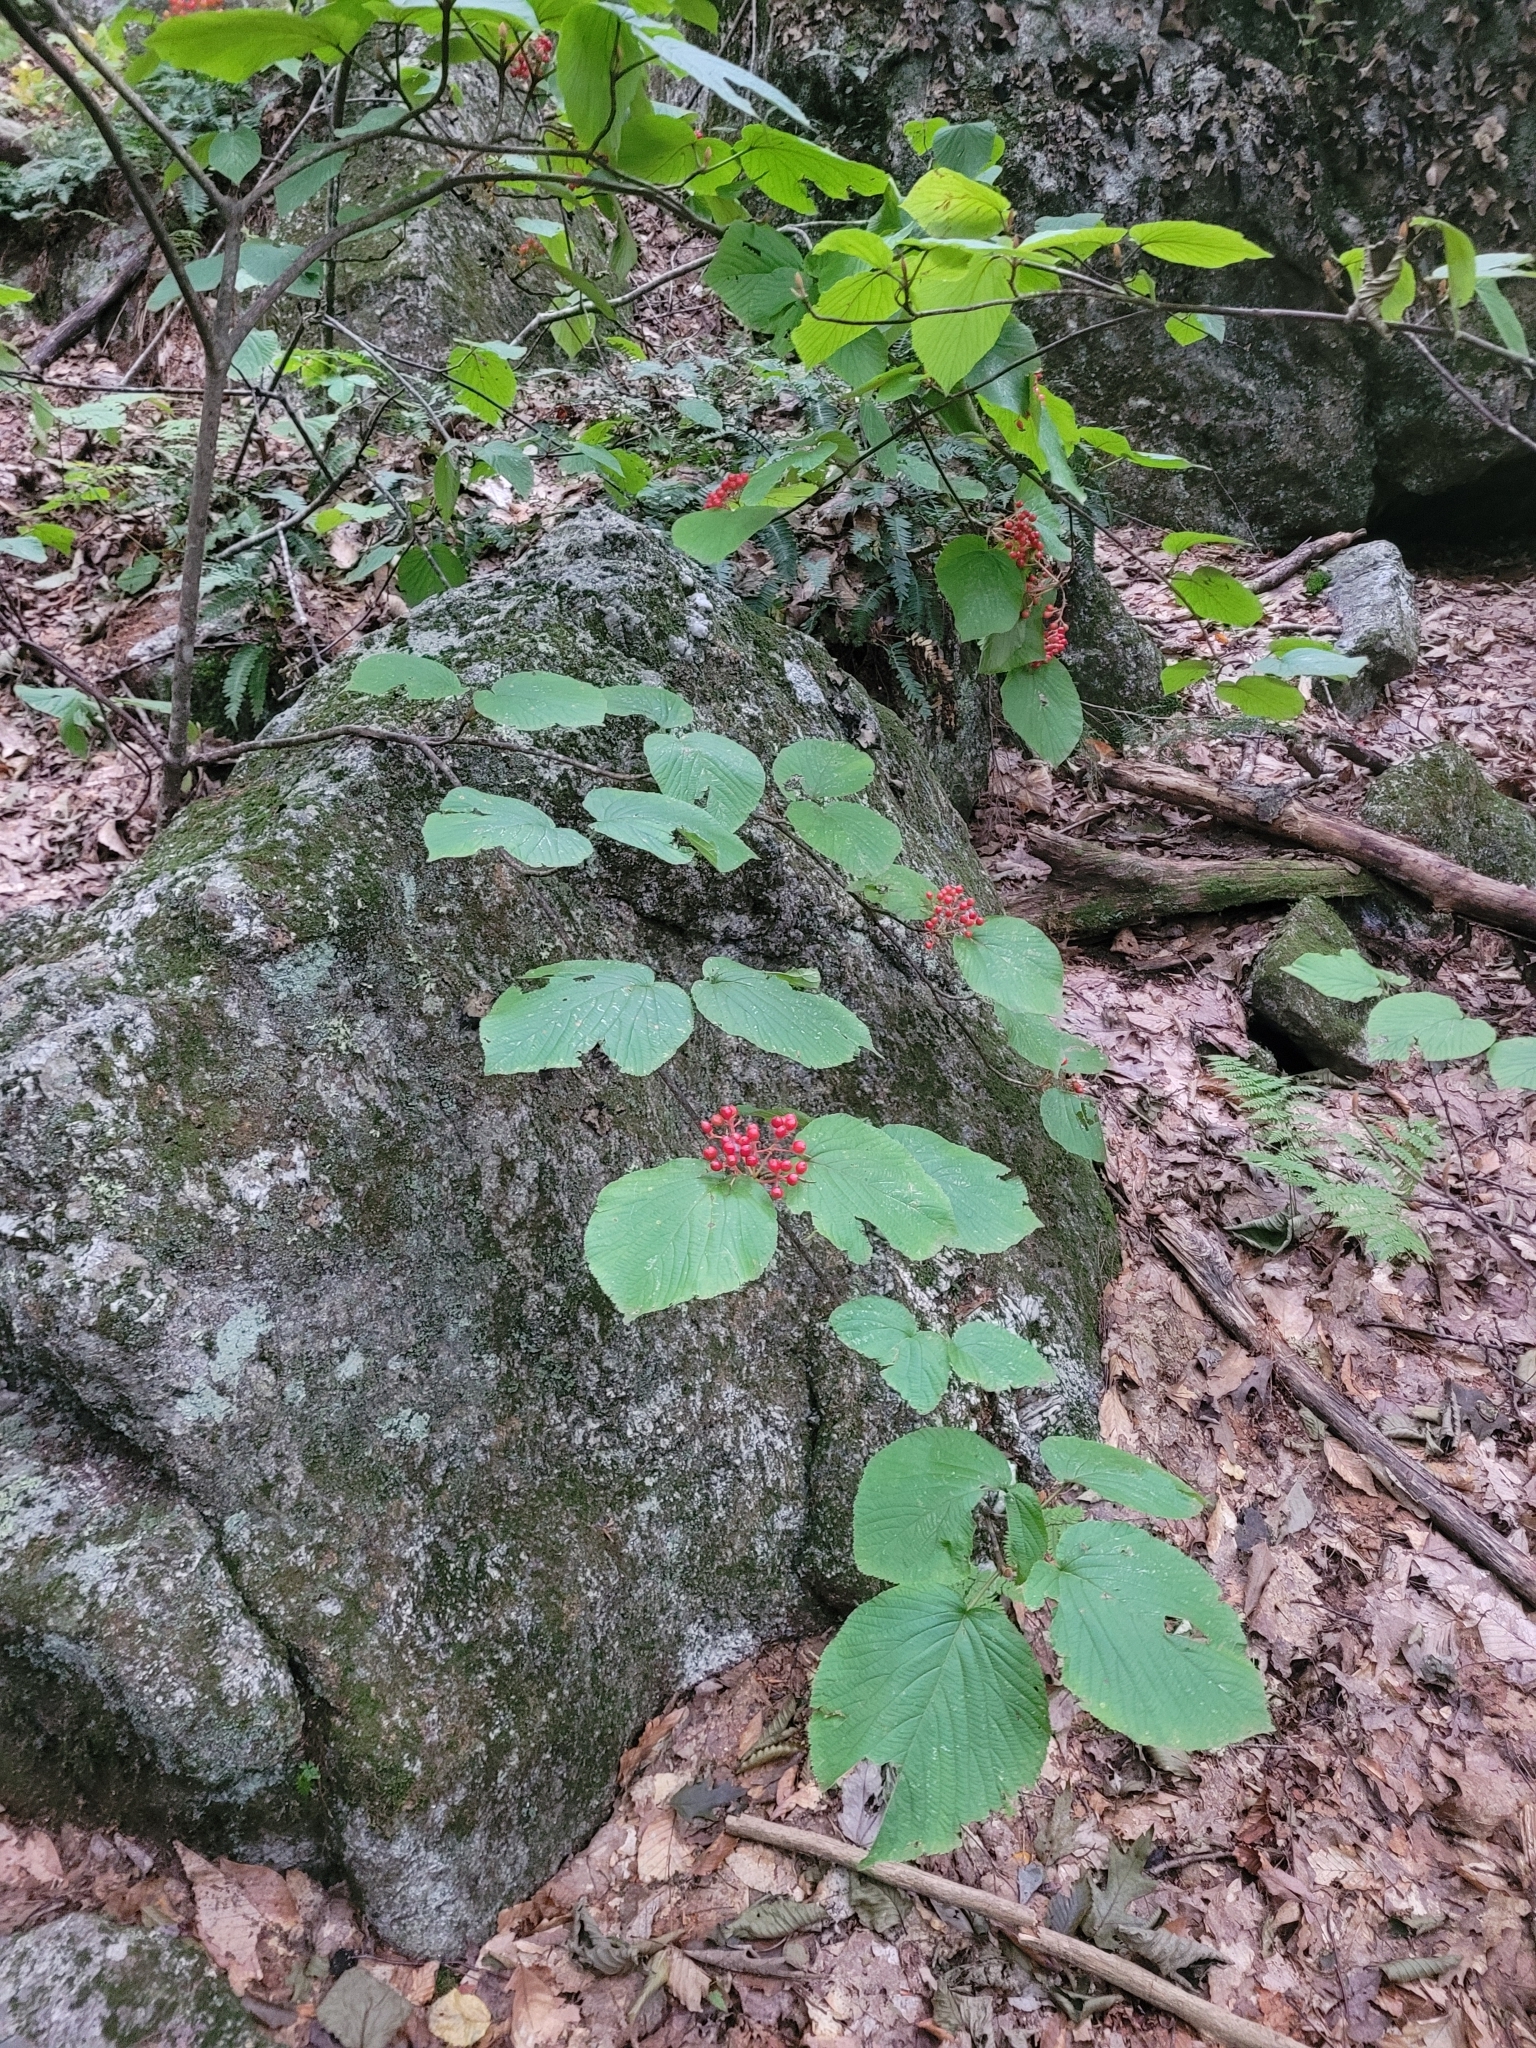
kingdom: Plantae
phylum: Tracheophyta
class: Magnoliopsida
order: Dipsacales
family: Viburnaceae
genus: Viburnum
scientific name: Viburnum lantanoides
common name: Hobblebush
